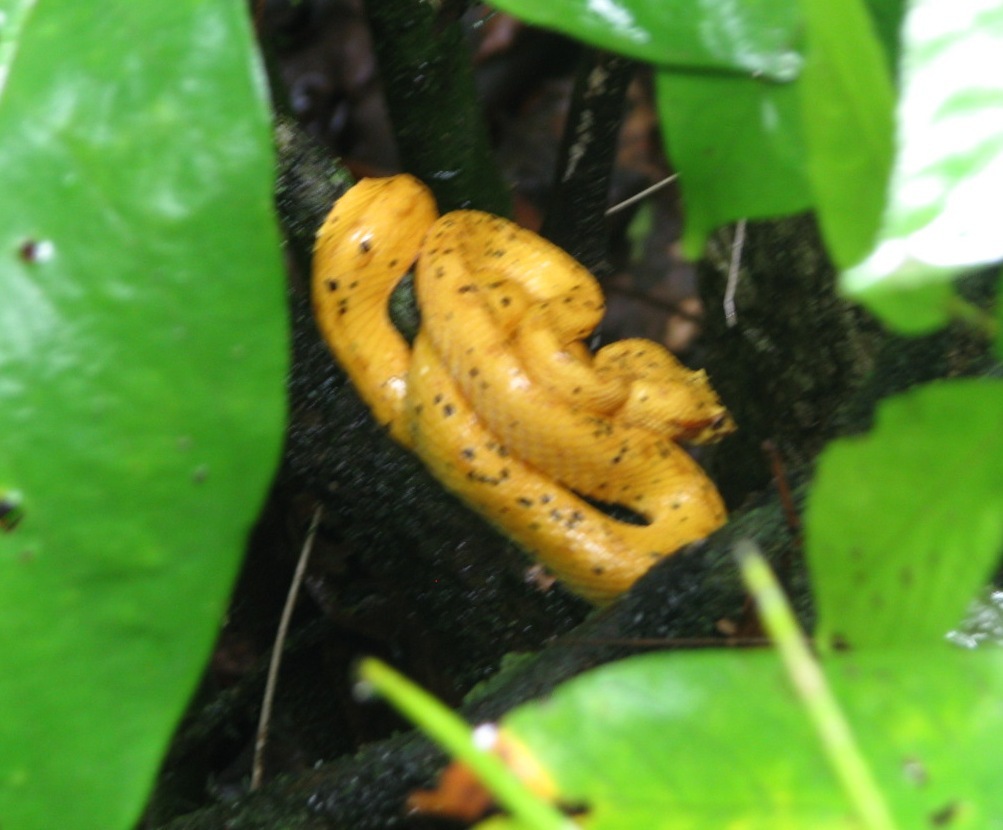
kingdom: Animalia
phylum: Chordata
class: Squamata
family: Viperidae
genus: Bothriechis
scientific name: Bothriechis schlegelii
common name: Eyelash viper
